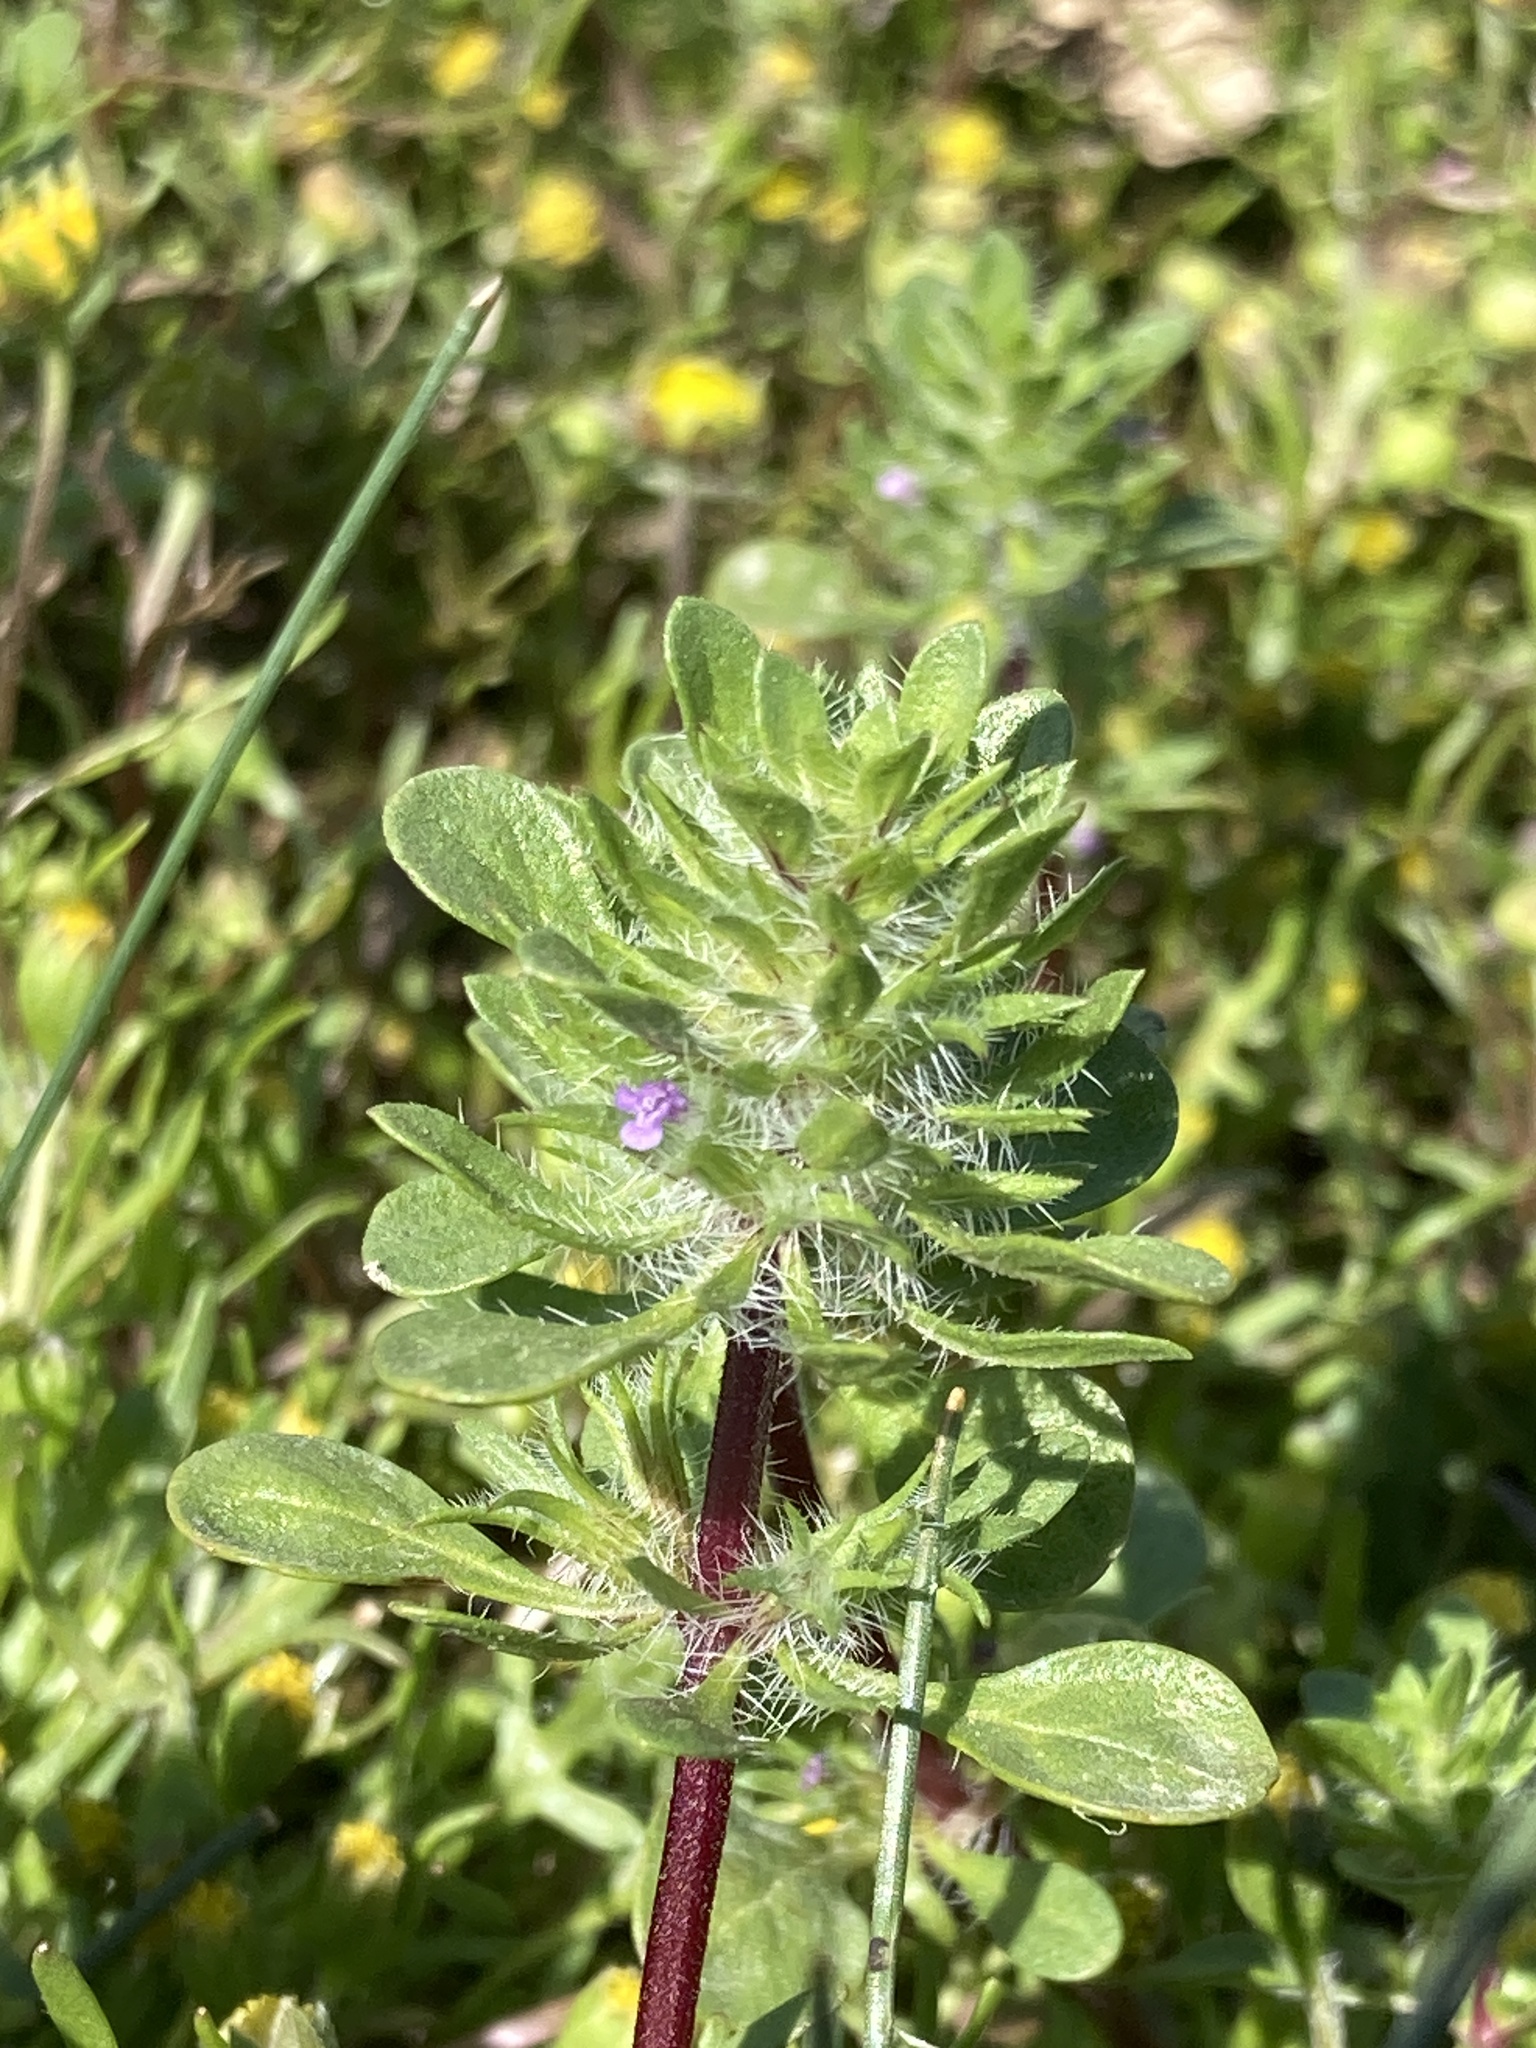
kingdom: Plantae
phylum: Tracheophyta
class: Magnoliopsida
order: Lamiales
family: Lamiaceae
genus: Pogogyne
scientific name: Pogogyne zizyphoroides
